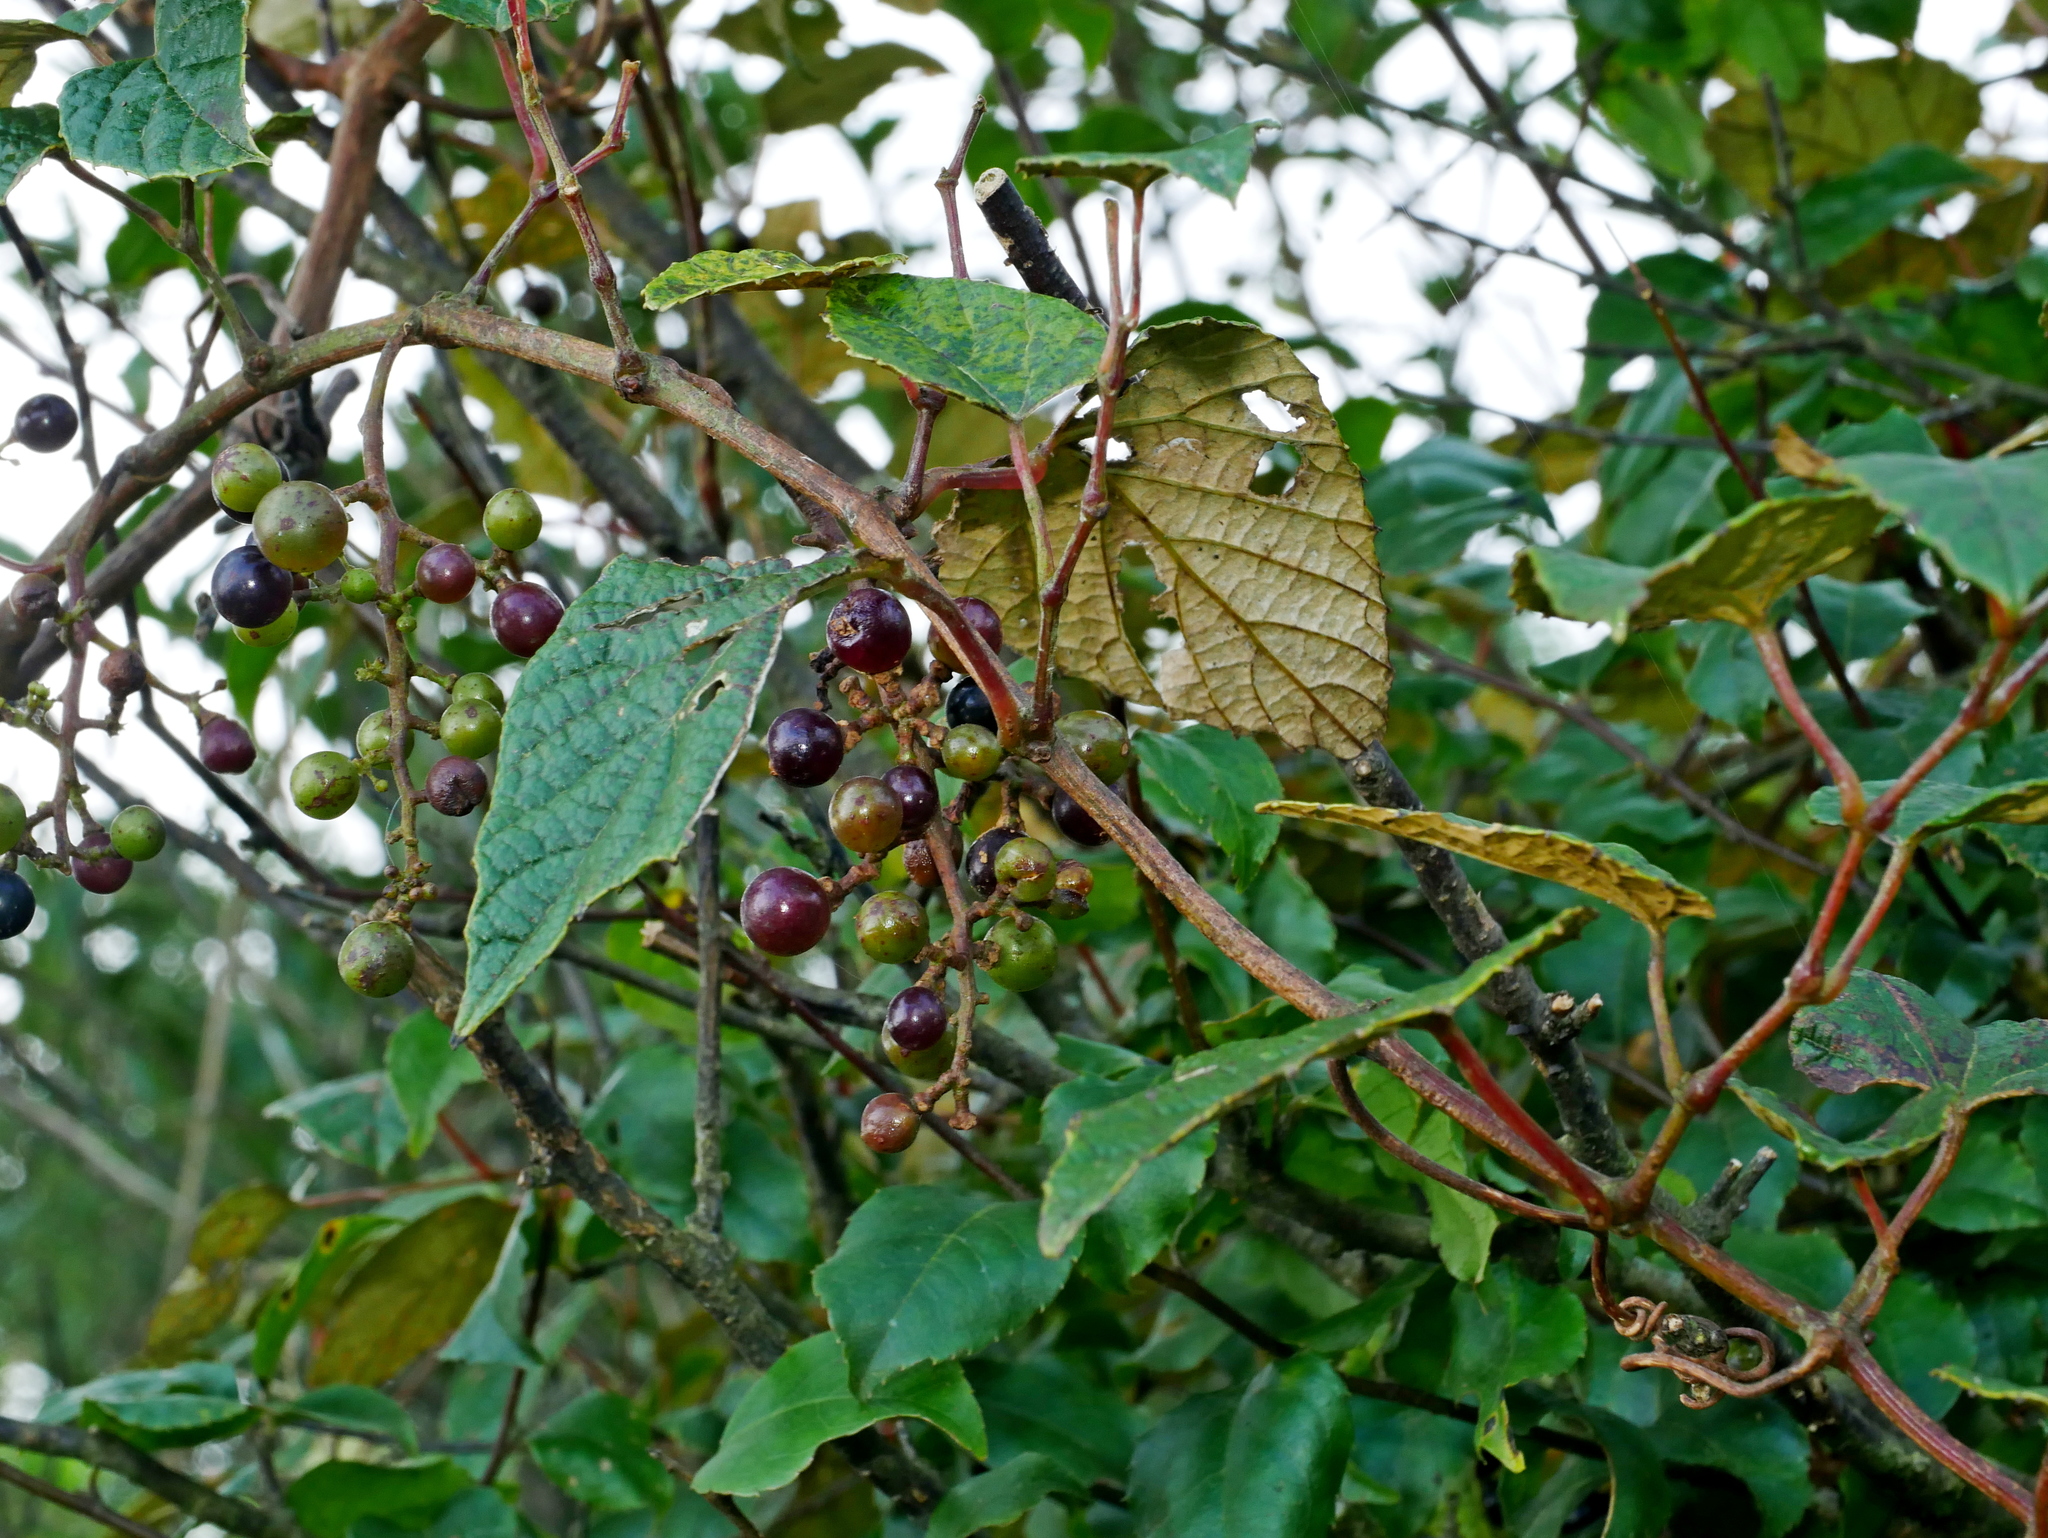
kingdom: Plantae
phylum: Tracheophyta
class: Magnoliopsida
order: Vitales
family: Vitaceae
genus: Vitis
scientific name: Vitis heyneana
